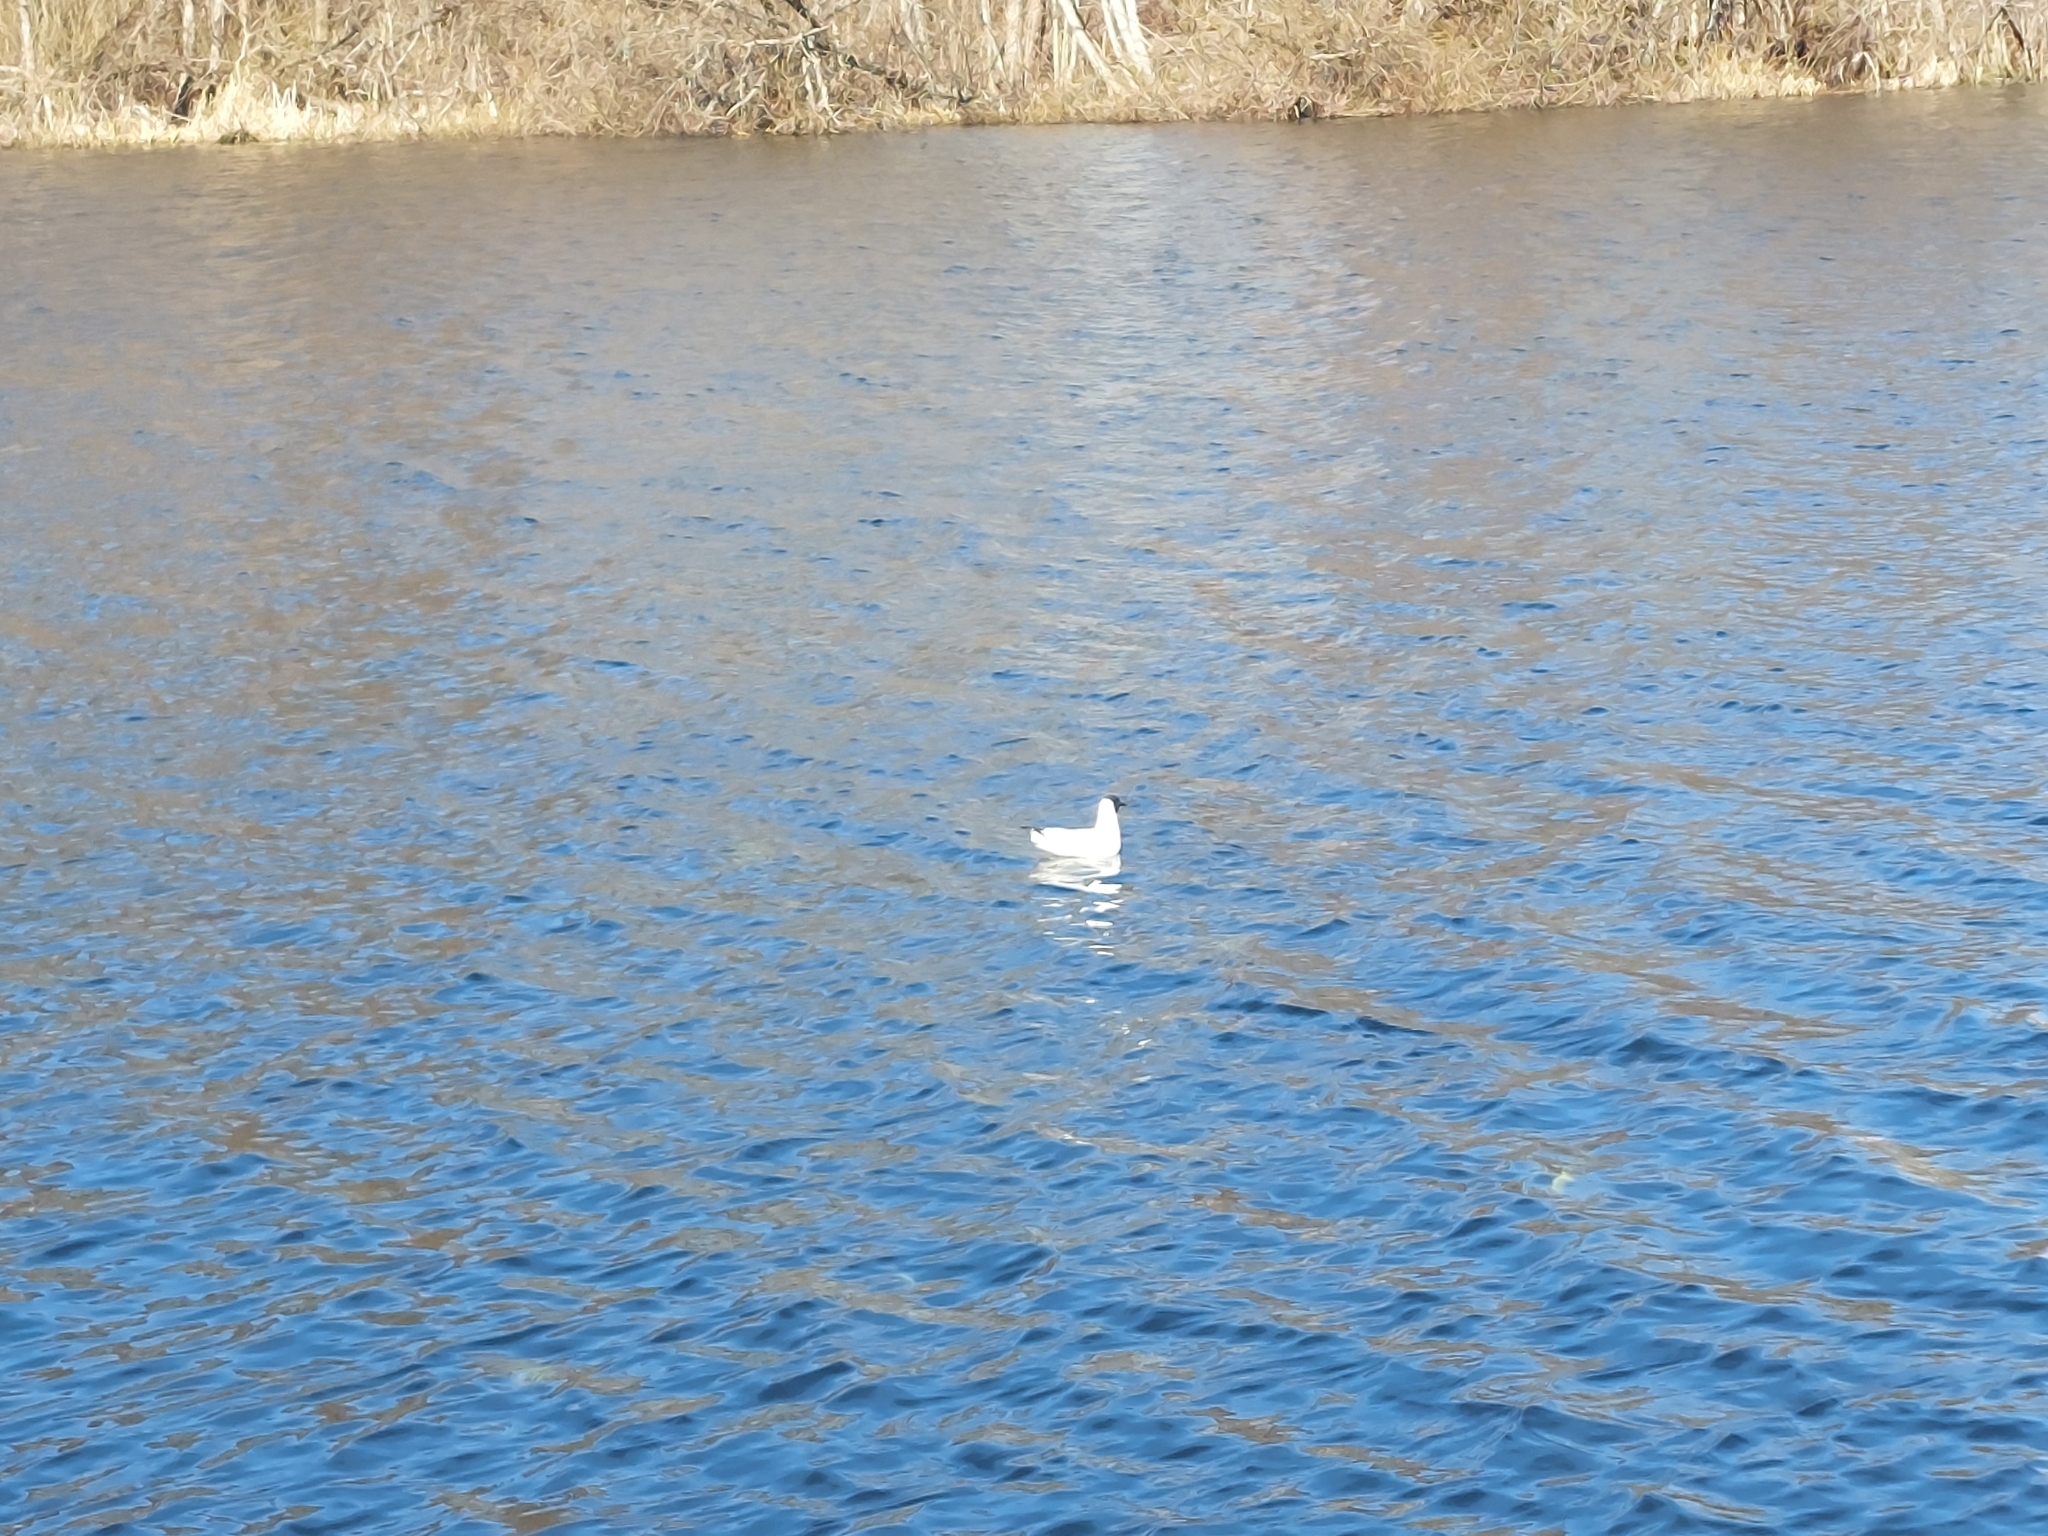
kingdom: Animalia
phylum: Chordata
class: Aves
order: Charadriiformes
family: Laridae
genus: Chroicocephalus
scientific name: Chroicocephalus ridibundus
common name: Black-headed gull
